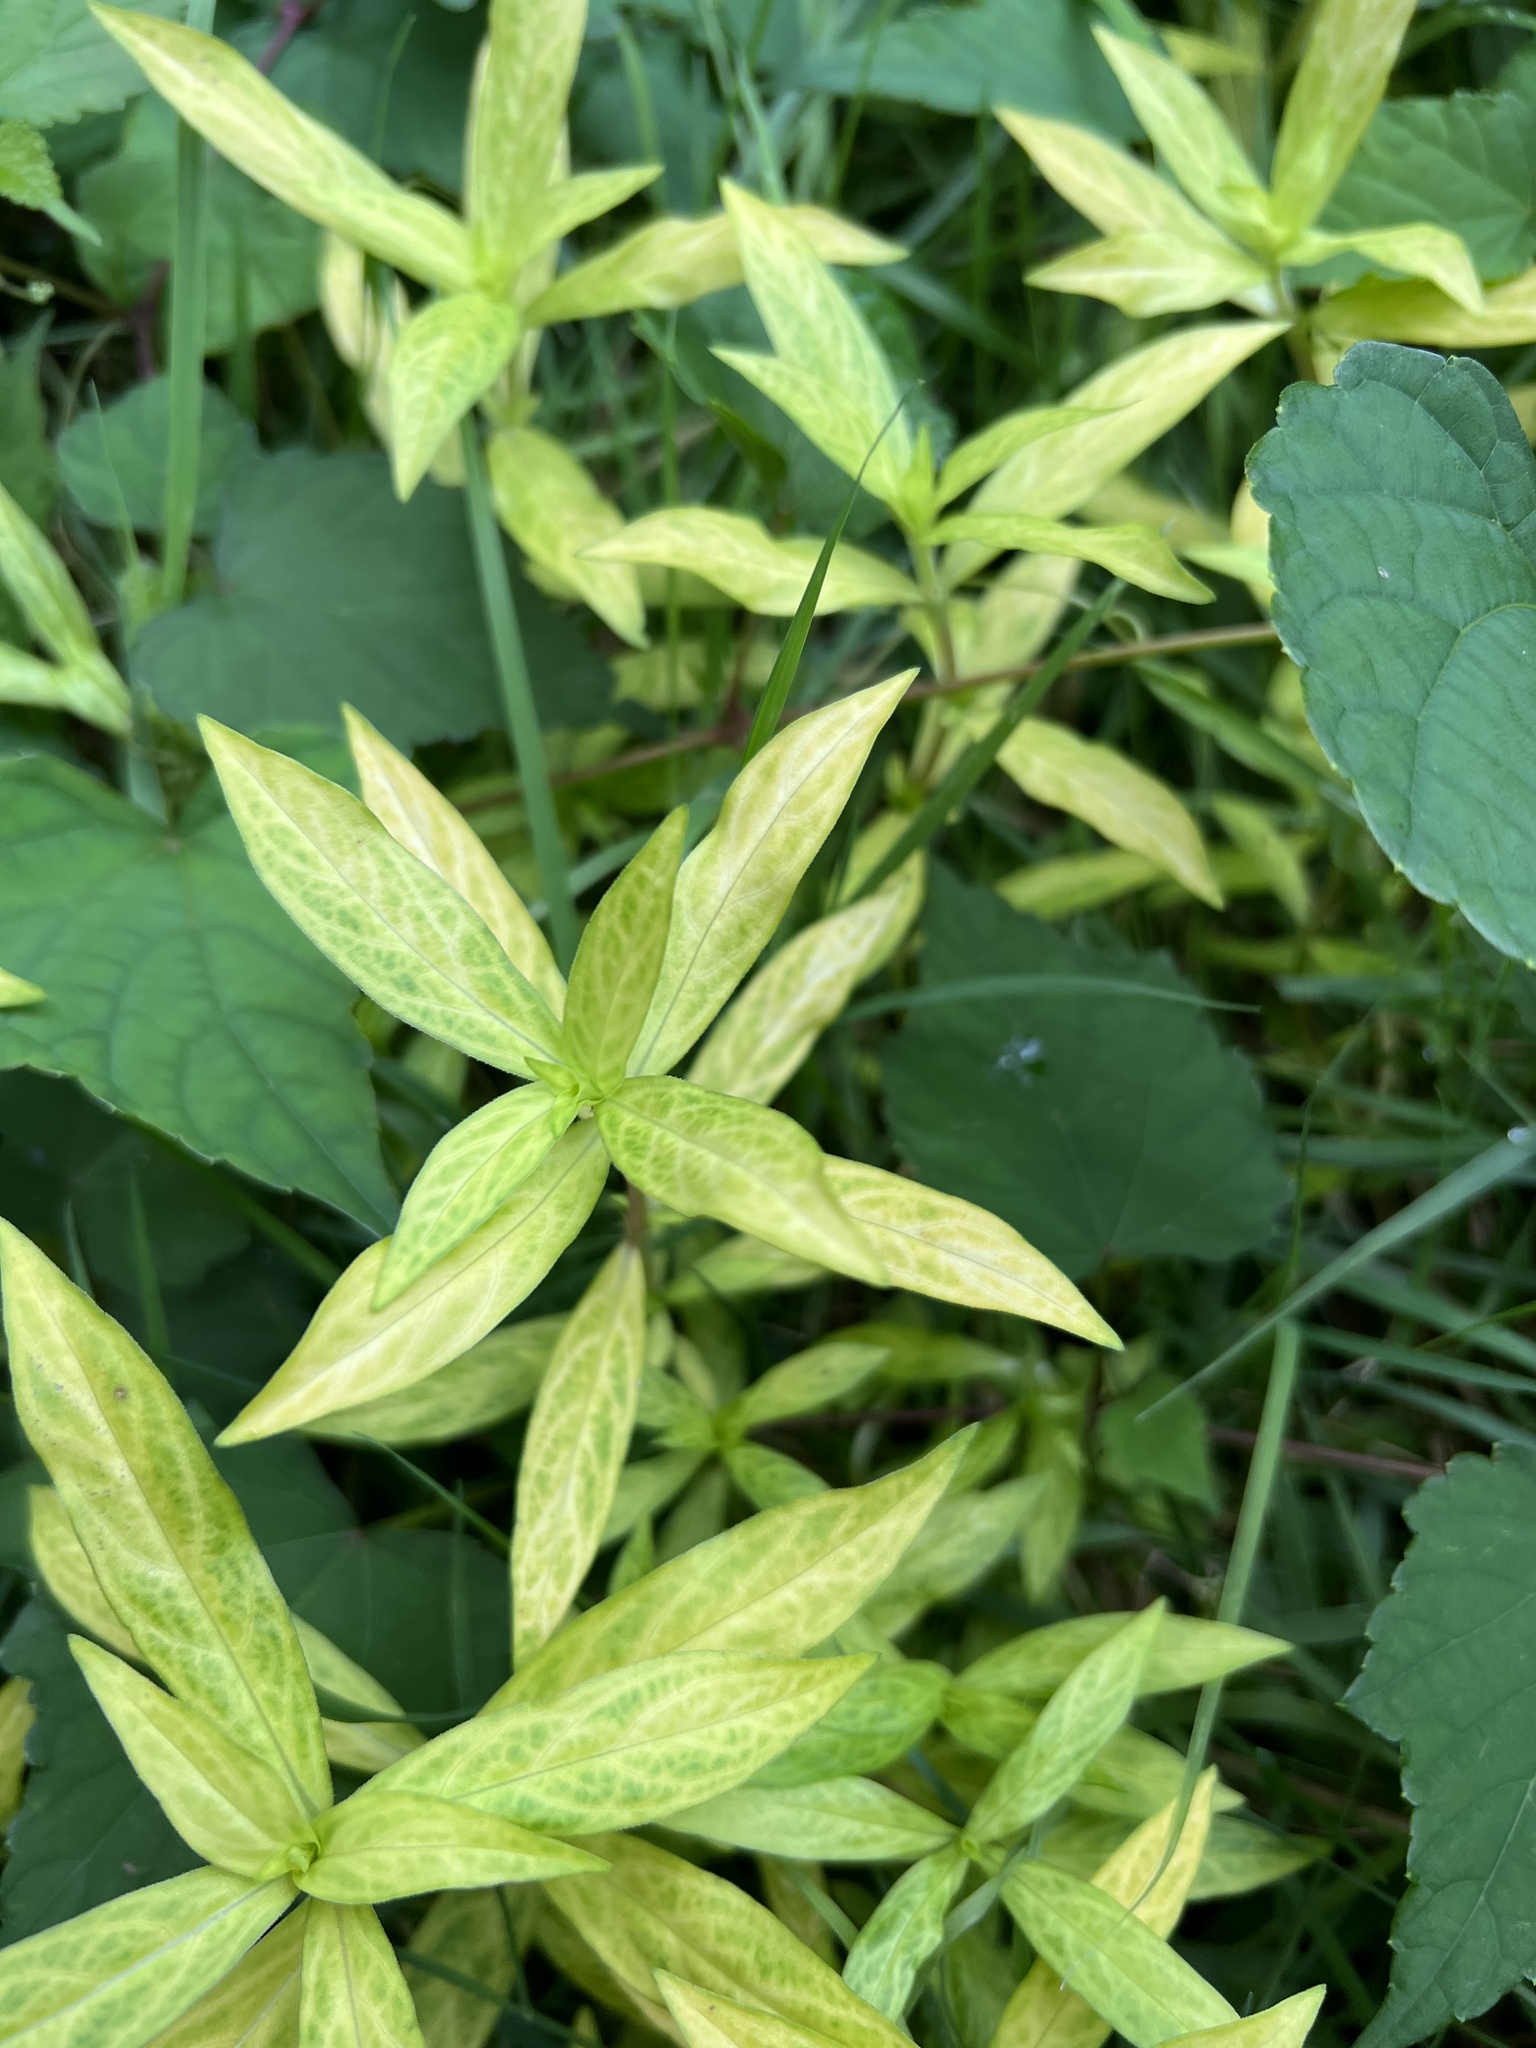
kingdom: Viruses
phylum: Kitrinoviricota
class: Alsuviricetes
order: Martellivirales
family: Closteroviridae
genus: Crinivirus
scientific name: Crinivirus Diodia vein chlorosis virus
